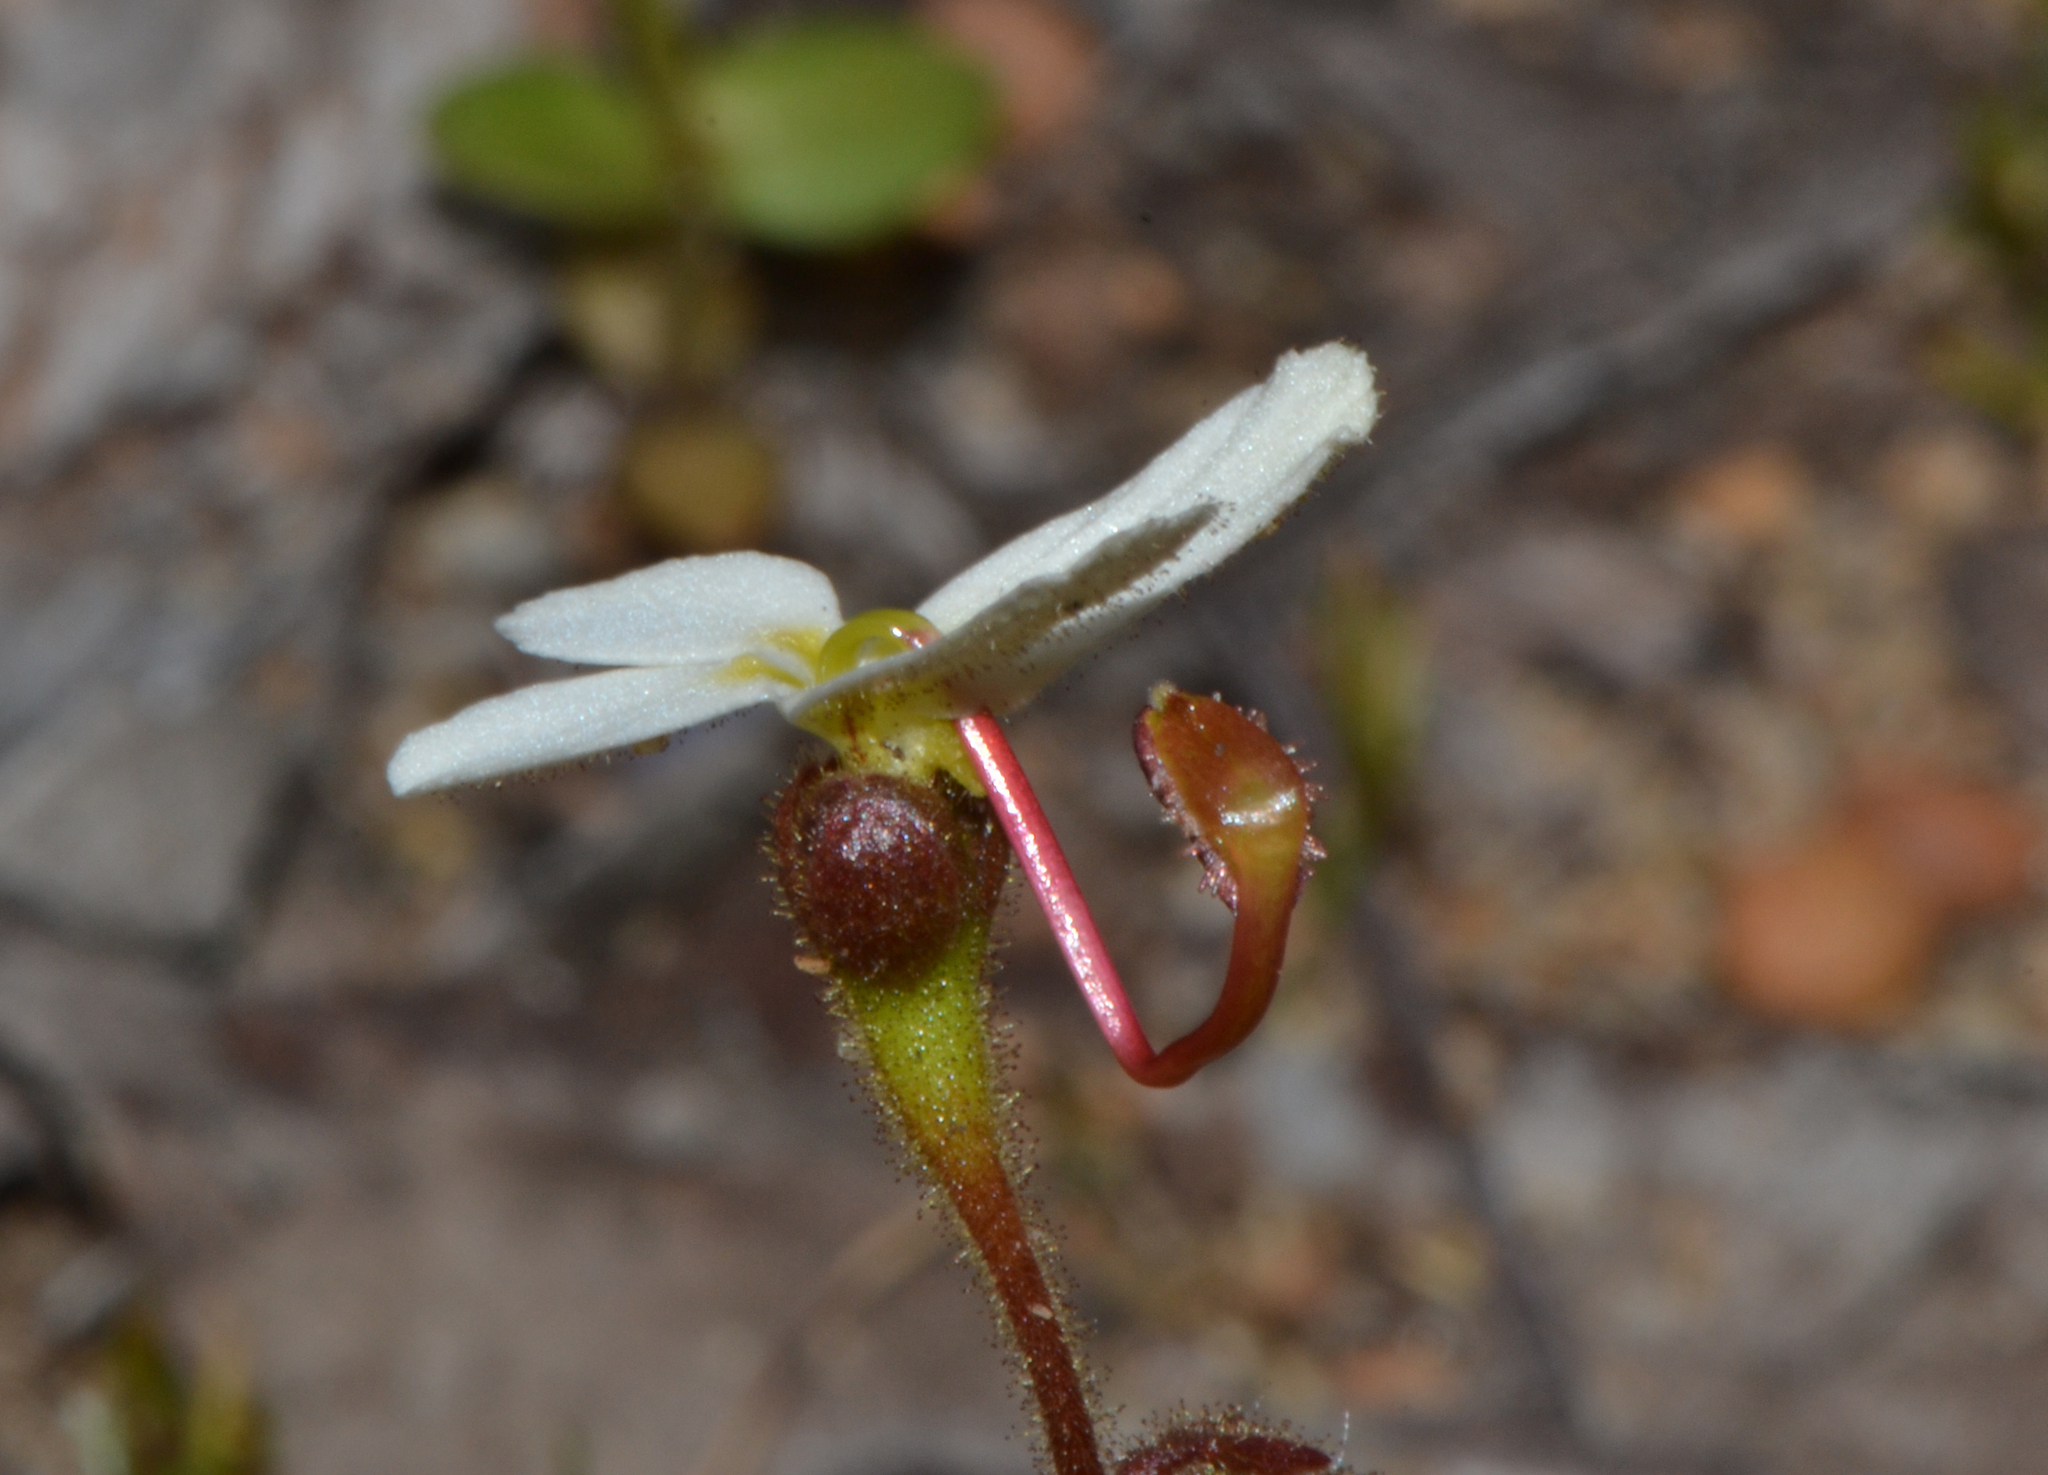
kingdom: Plantae
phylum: Tracheophyta
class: Magnoliopsida
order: Asterales
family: Stylidiaceae
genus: Stylidium
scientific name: Stylidium hispidum
